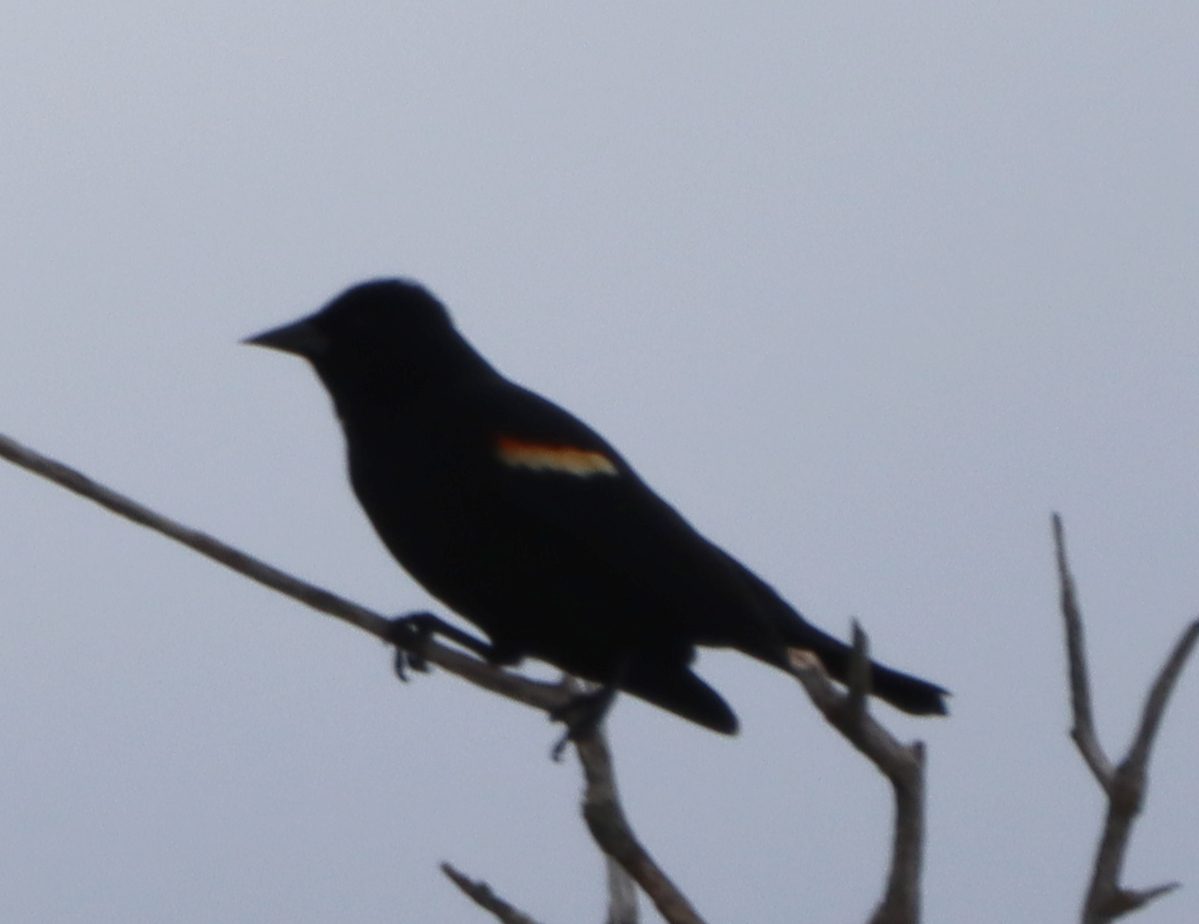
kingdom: Animalia
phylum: Chordata
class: Aves
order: Passeriformes
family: Icteridae
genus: Agelaius
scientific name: Agelaius phoeniceus
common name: Red-winged blackbird
